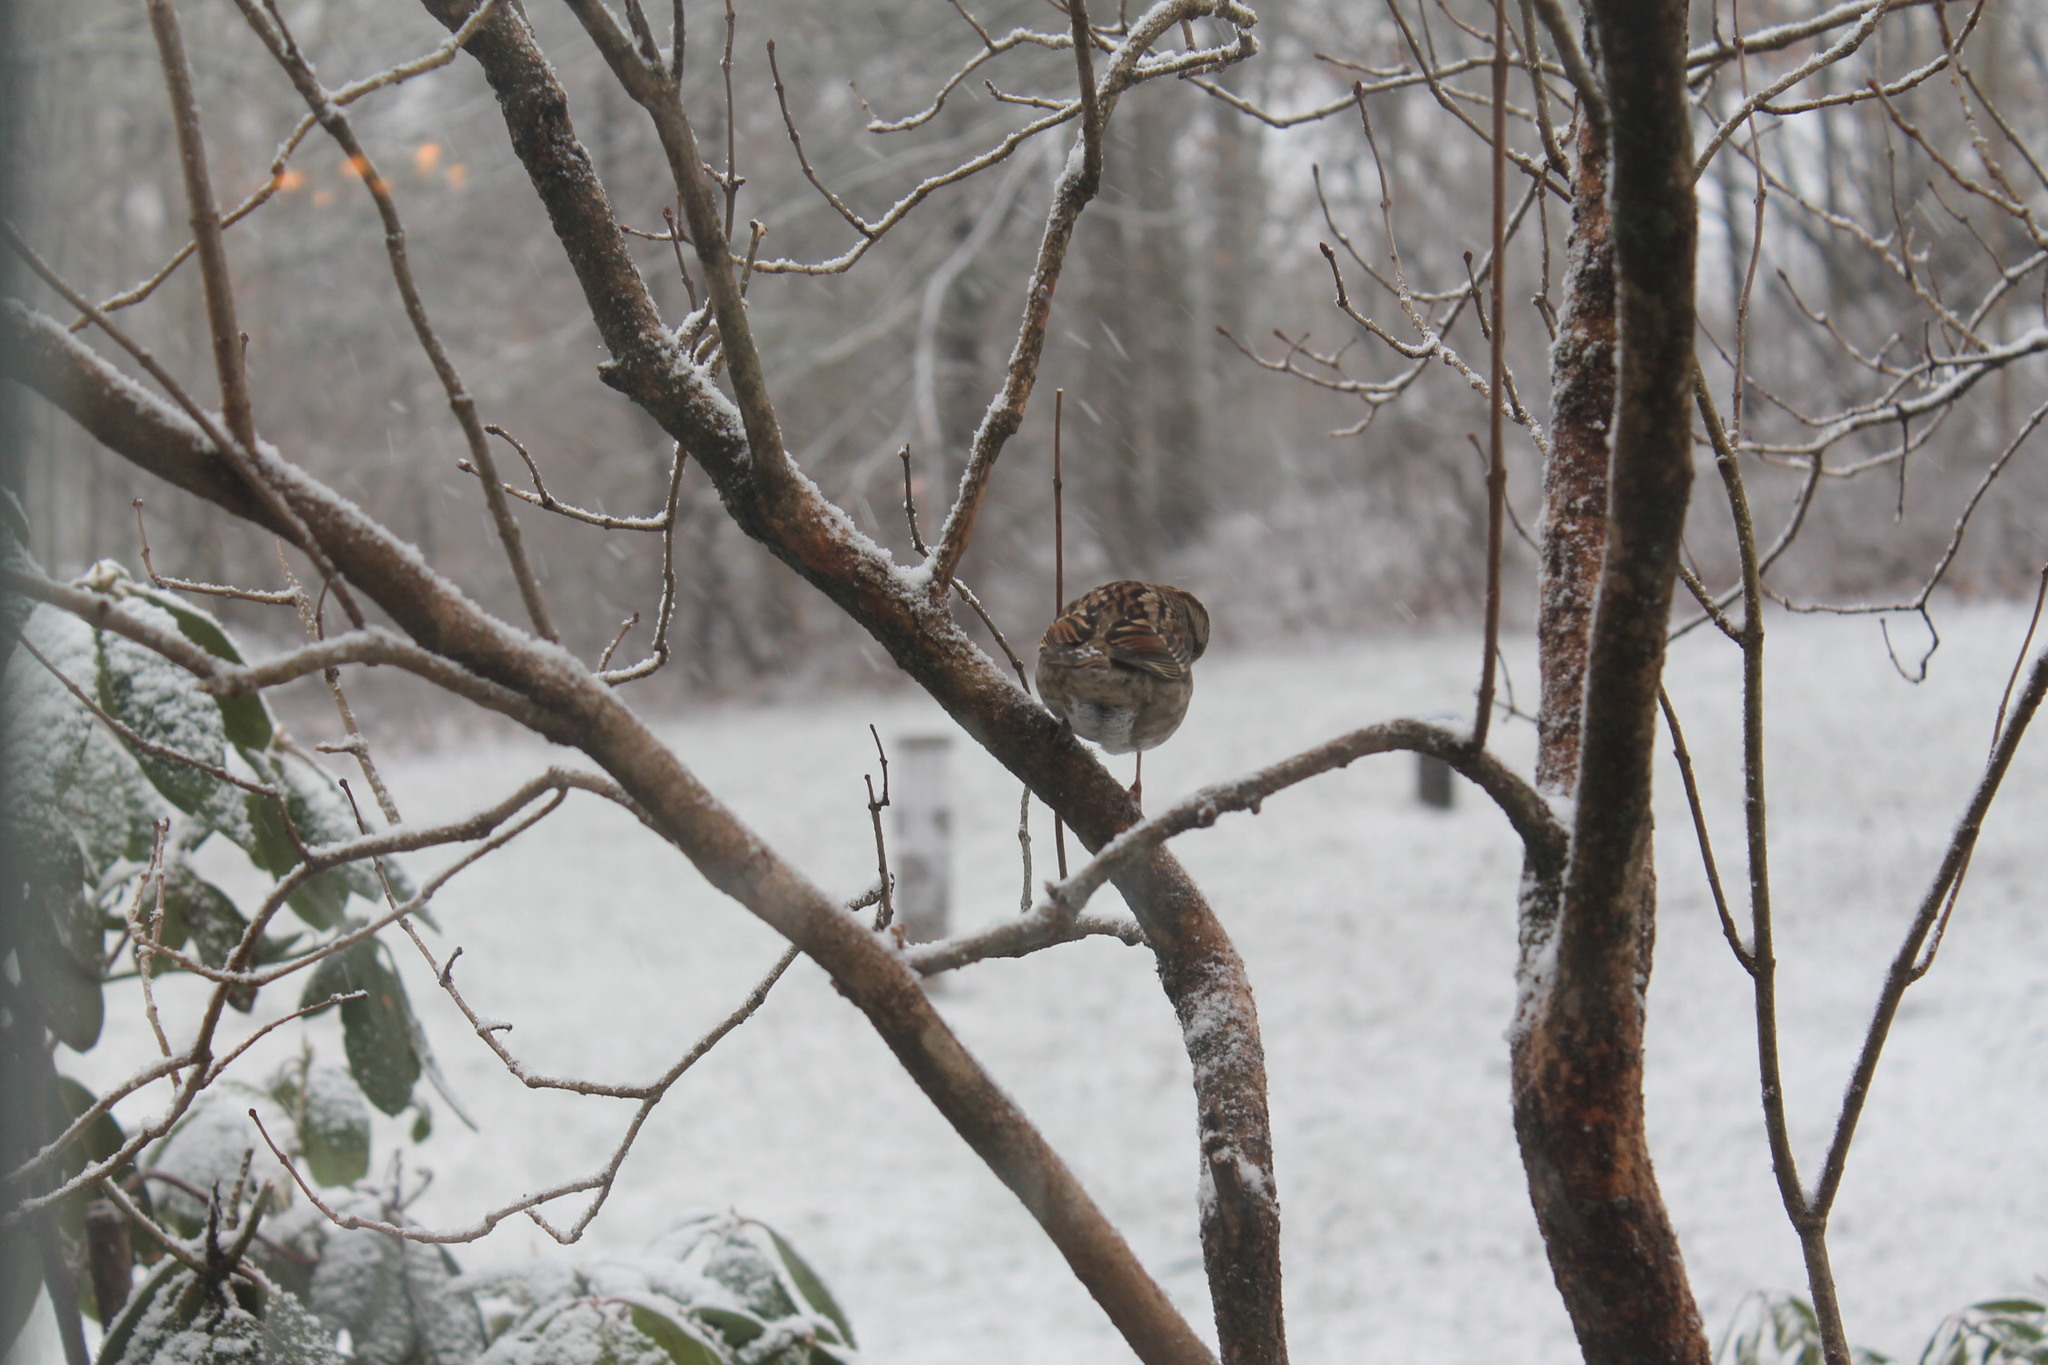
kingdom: Animalia
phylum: Chordata
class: Aves
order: Passeriformes
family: Passerellidae
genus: Zonotrichia
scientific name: Zonotrichia albicollis
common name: White-throated sparrow
